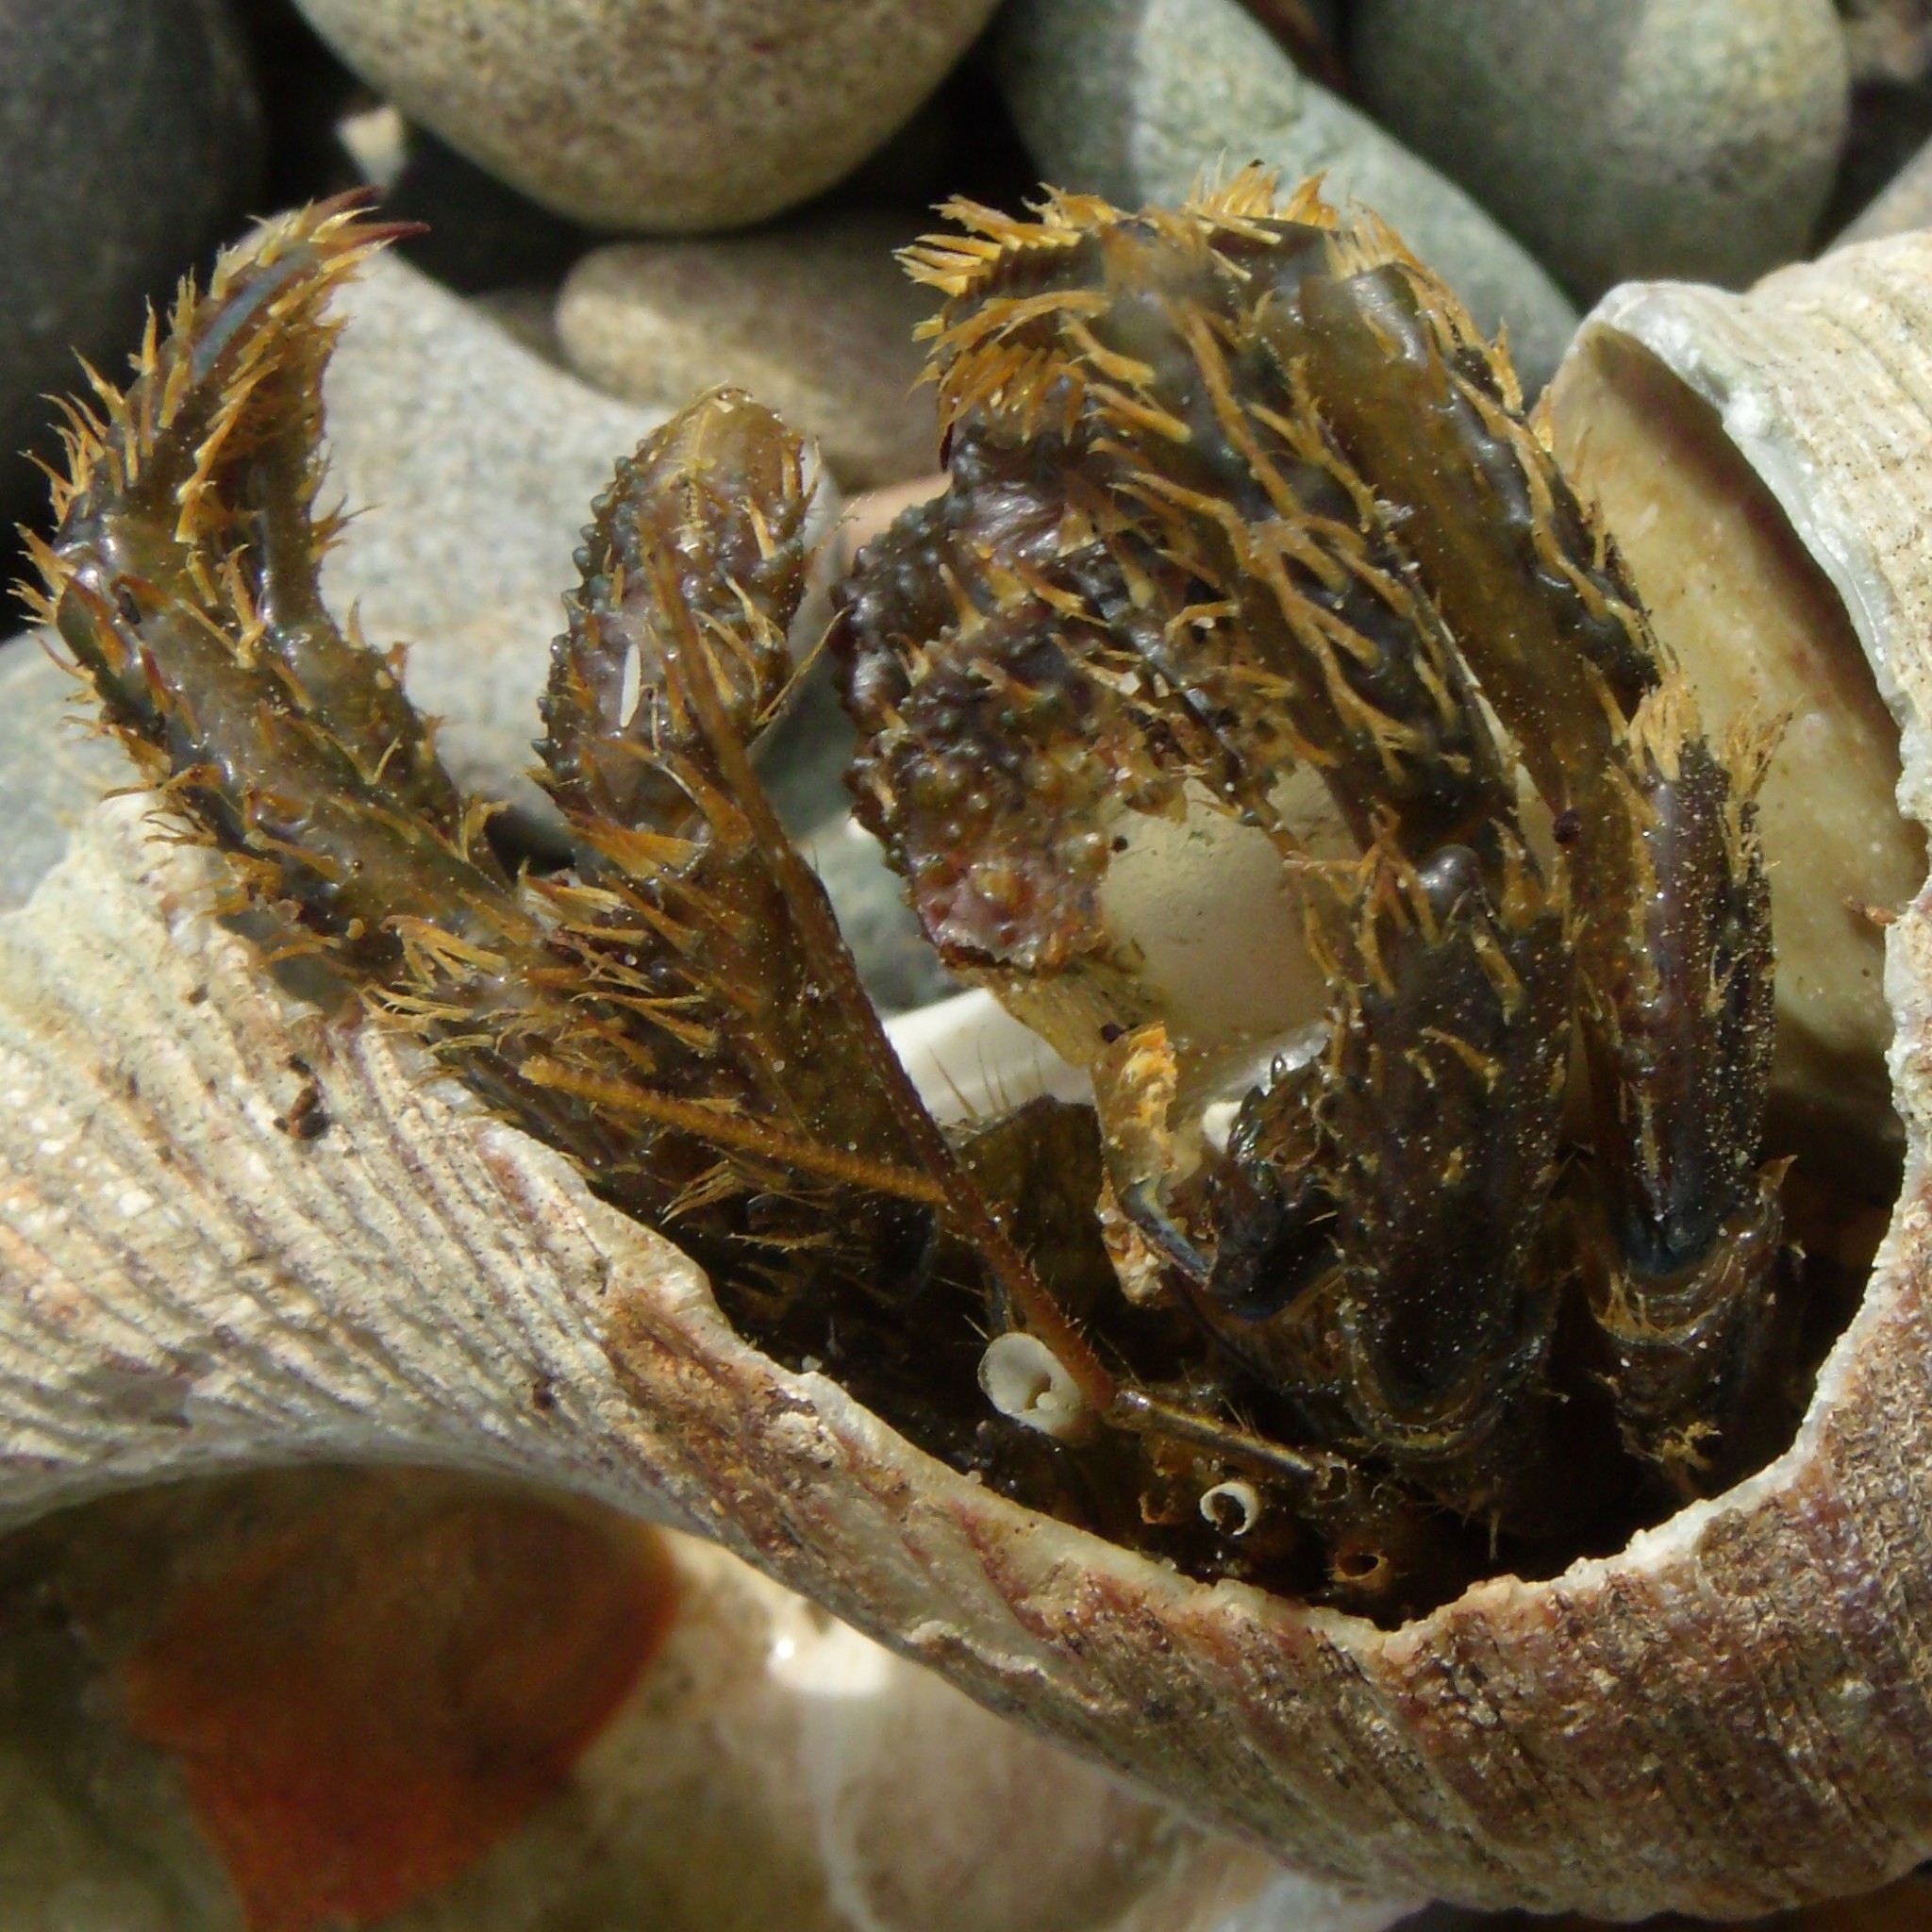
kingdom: Animalia
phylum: Arthropoda
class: Malacostraca
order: Decapoda
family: Paguridae
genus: Pagurus
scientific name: Pagurus novizealandiae
